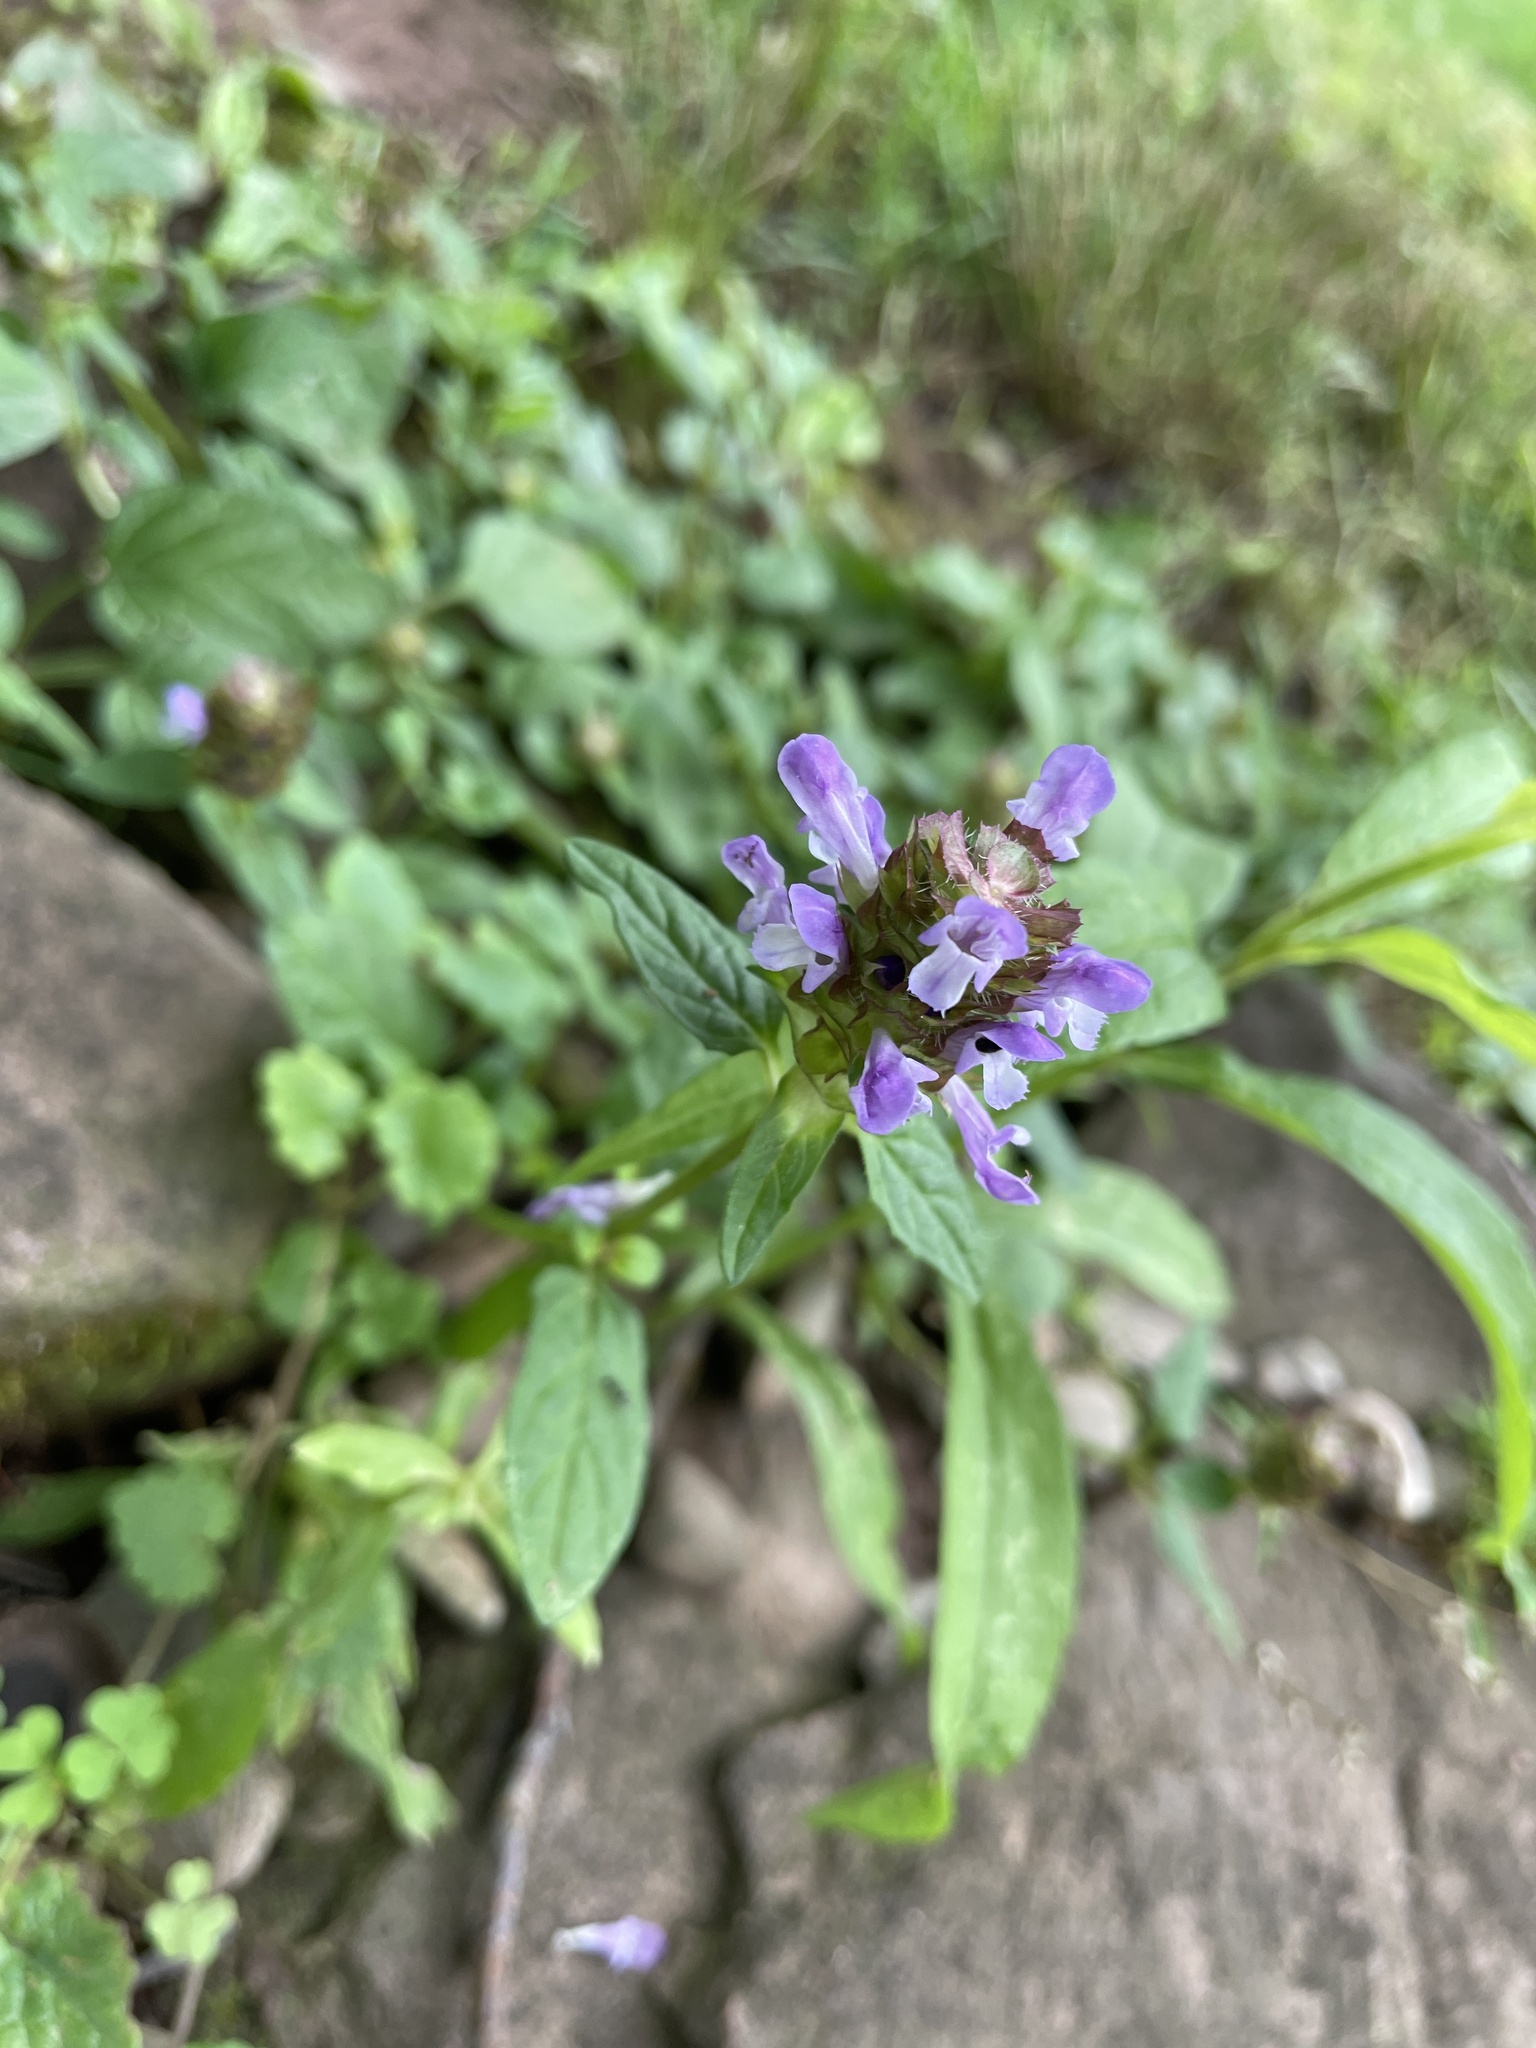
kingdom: Plantae
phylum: Tracheophyta
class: Magnoliopsida
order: Lamiales
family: Lamiaceae
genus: Prunella
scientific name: Prunella vulgaris
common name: Heal-all
